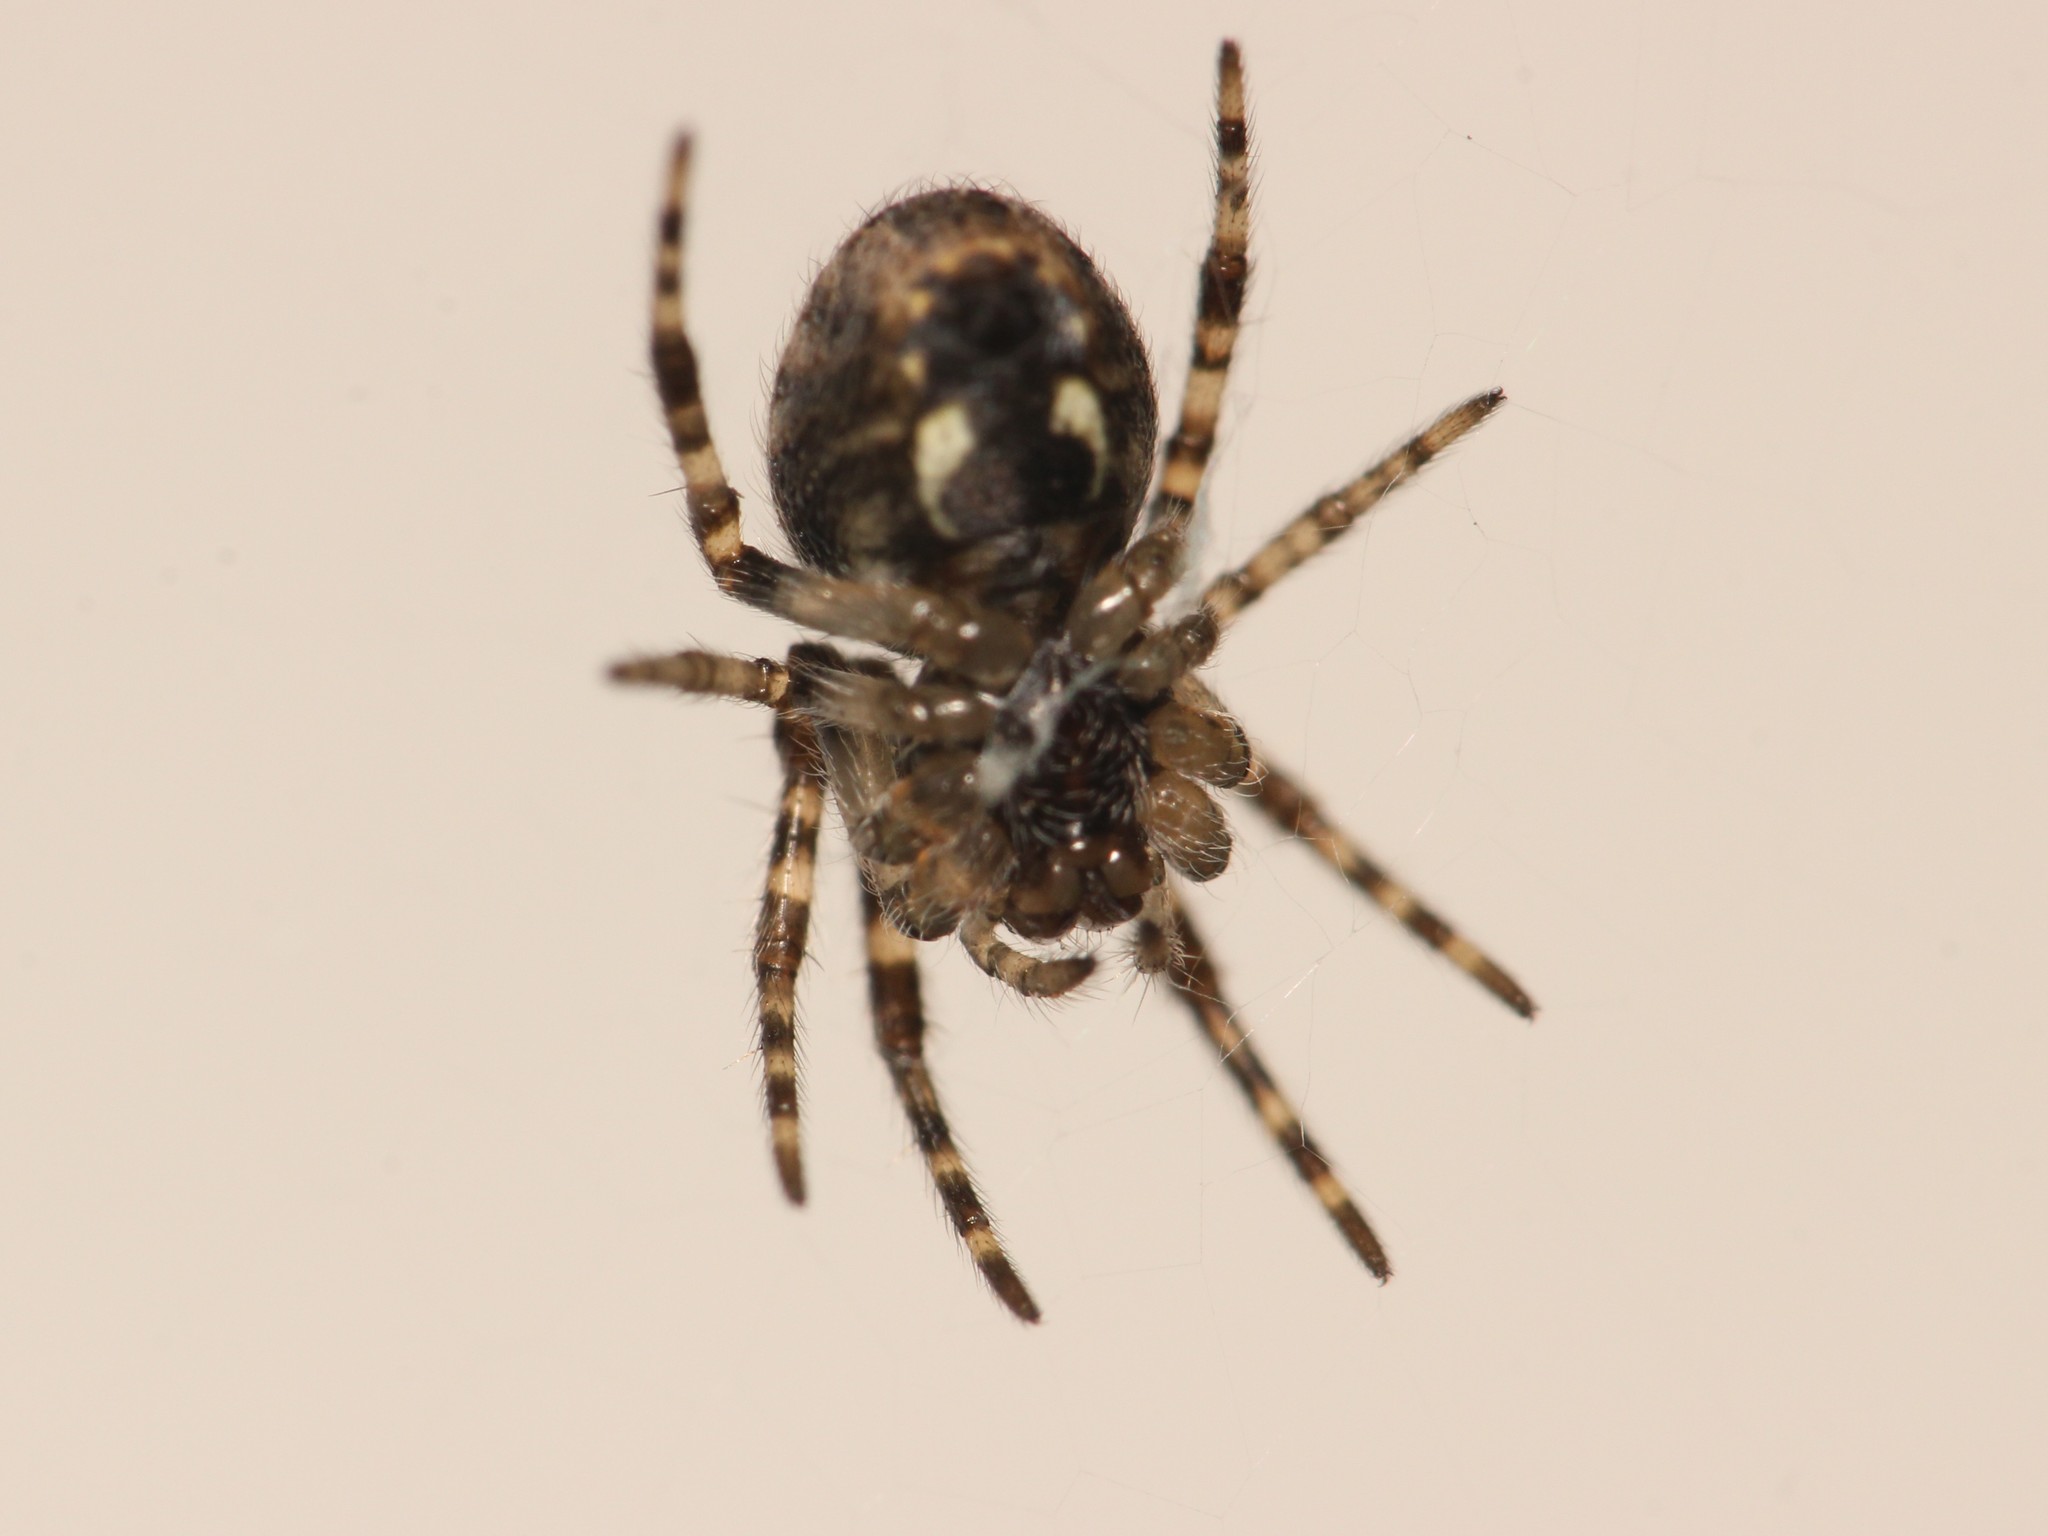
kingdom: Animalia
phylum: Arthropoda
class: Arachnida
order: Araneae
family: Araneidae
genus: Nuctenea
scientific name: Nuctenea umbratica
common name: Toad spider
